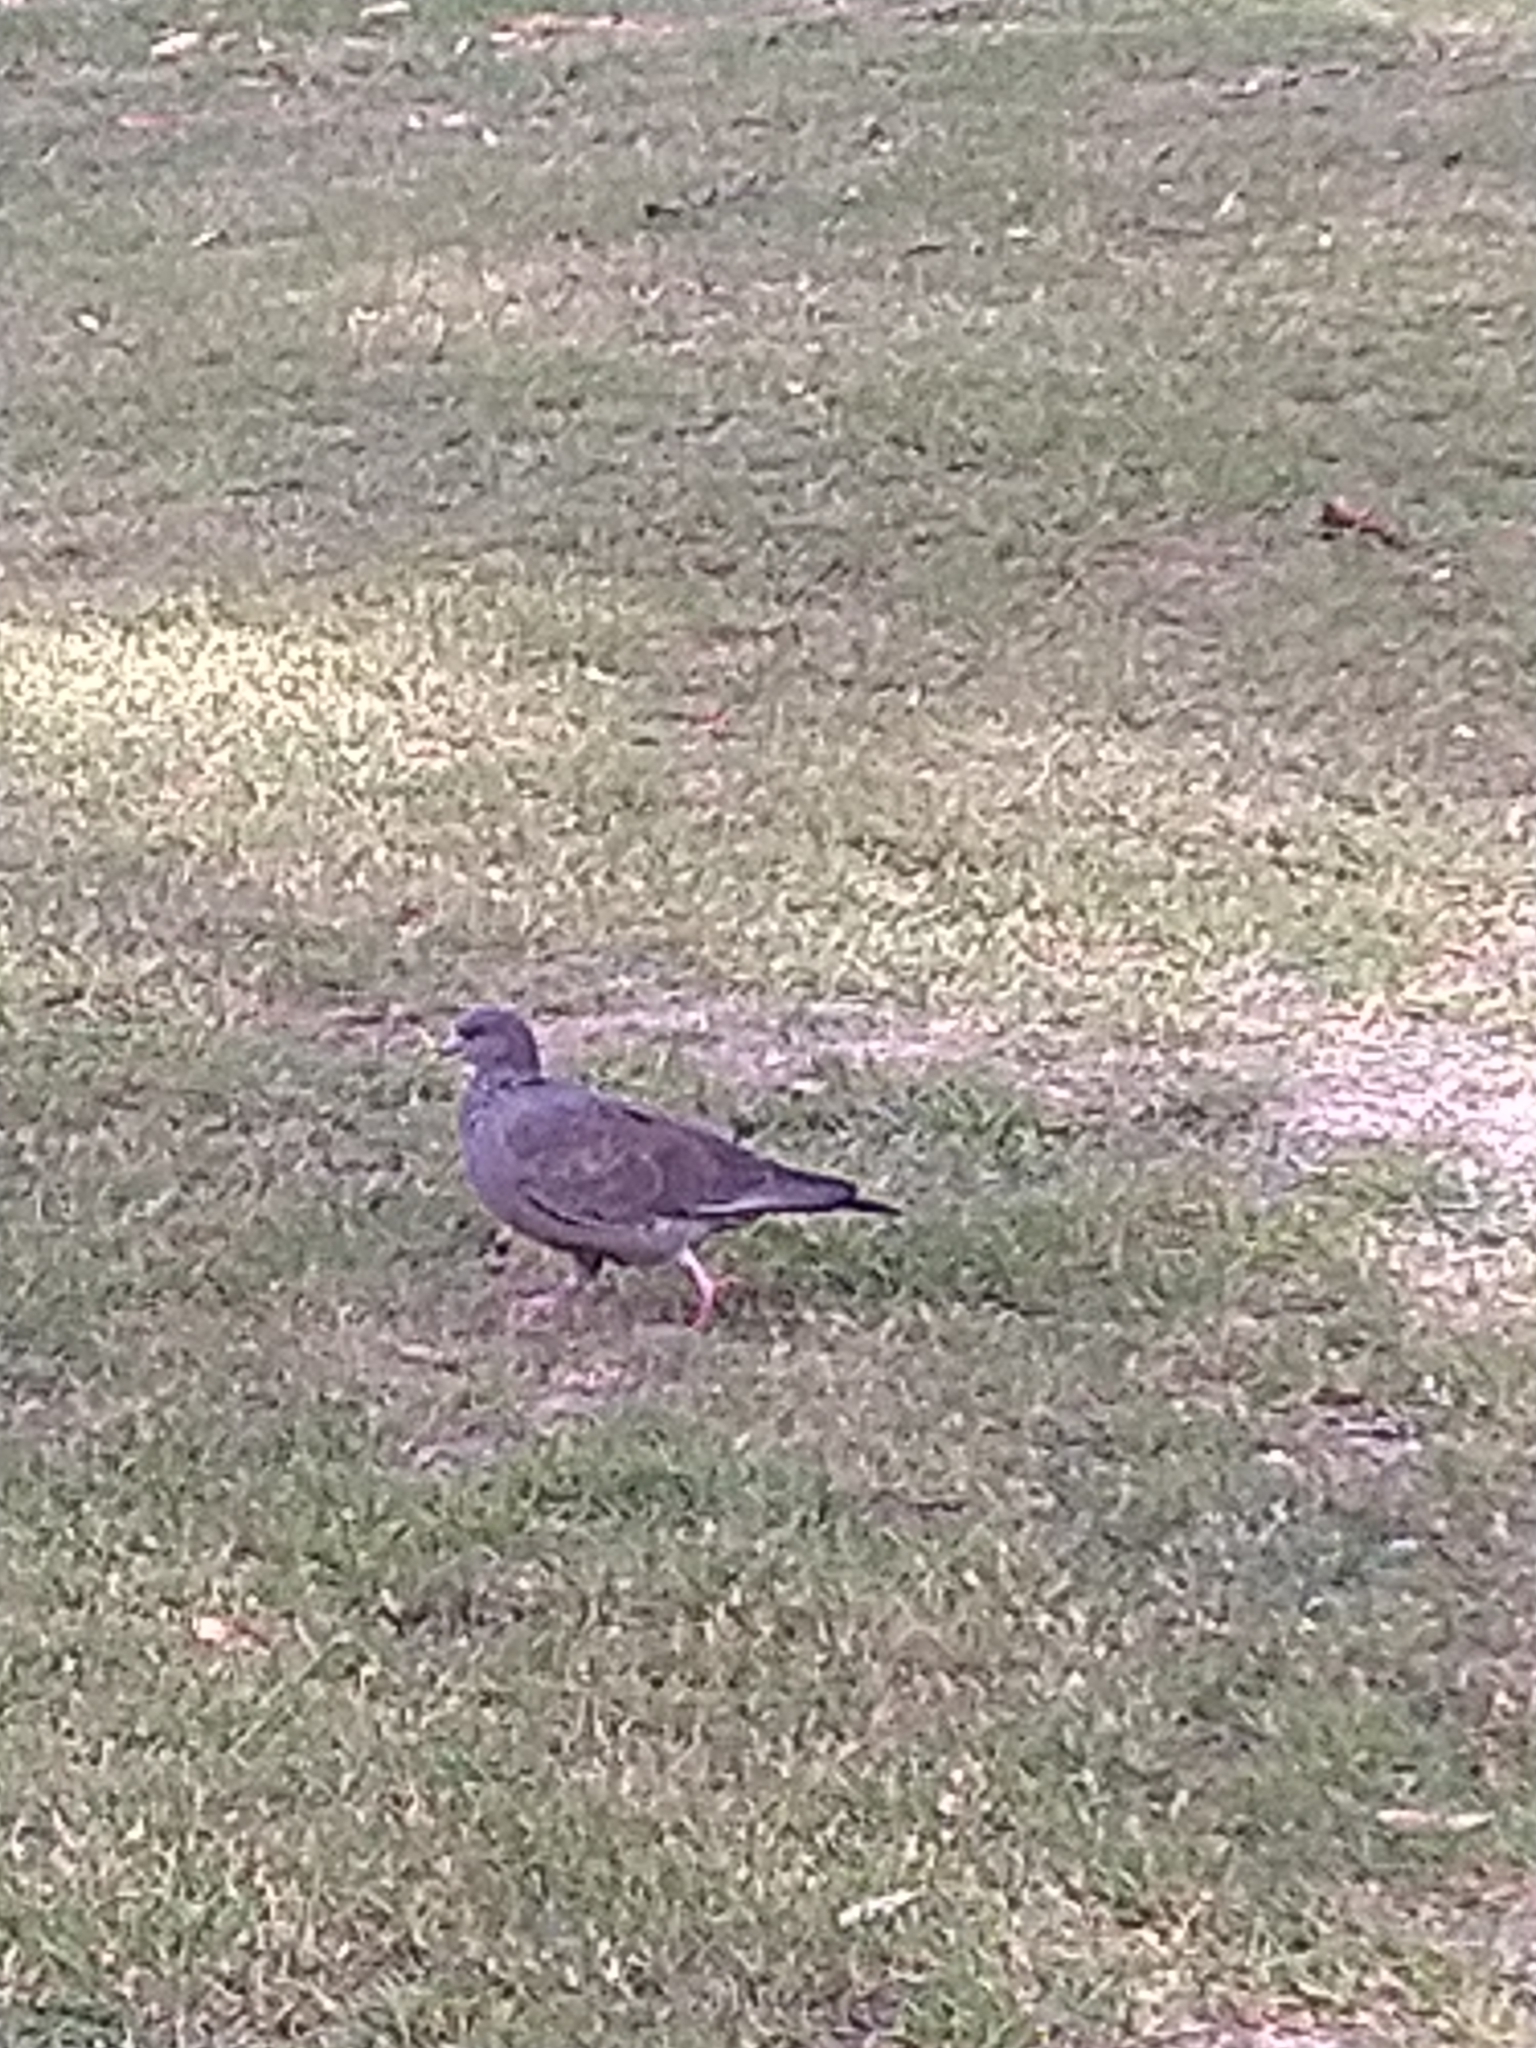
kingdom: Animalia
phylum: Chordata
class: Aves
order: Columbiformes
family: Columbidae
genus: Patagioenas
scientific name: Patagioenas picazuro
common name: Picazuro pigeon
